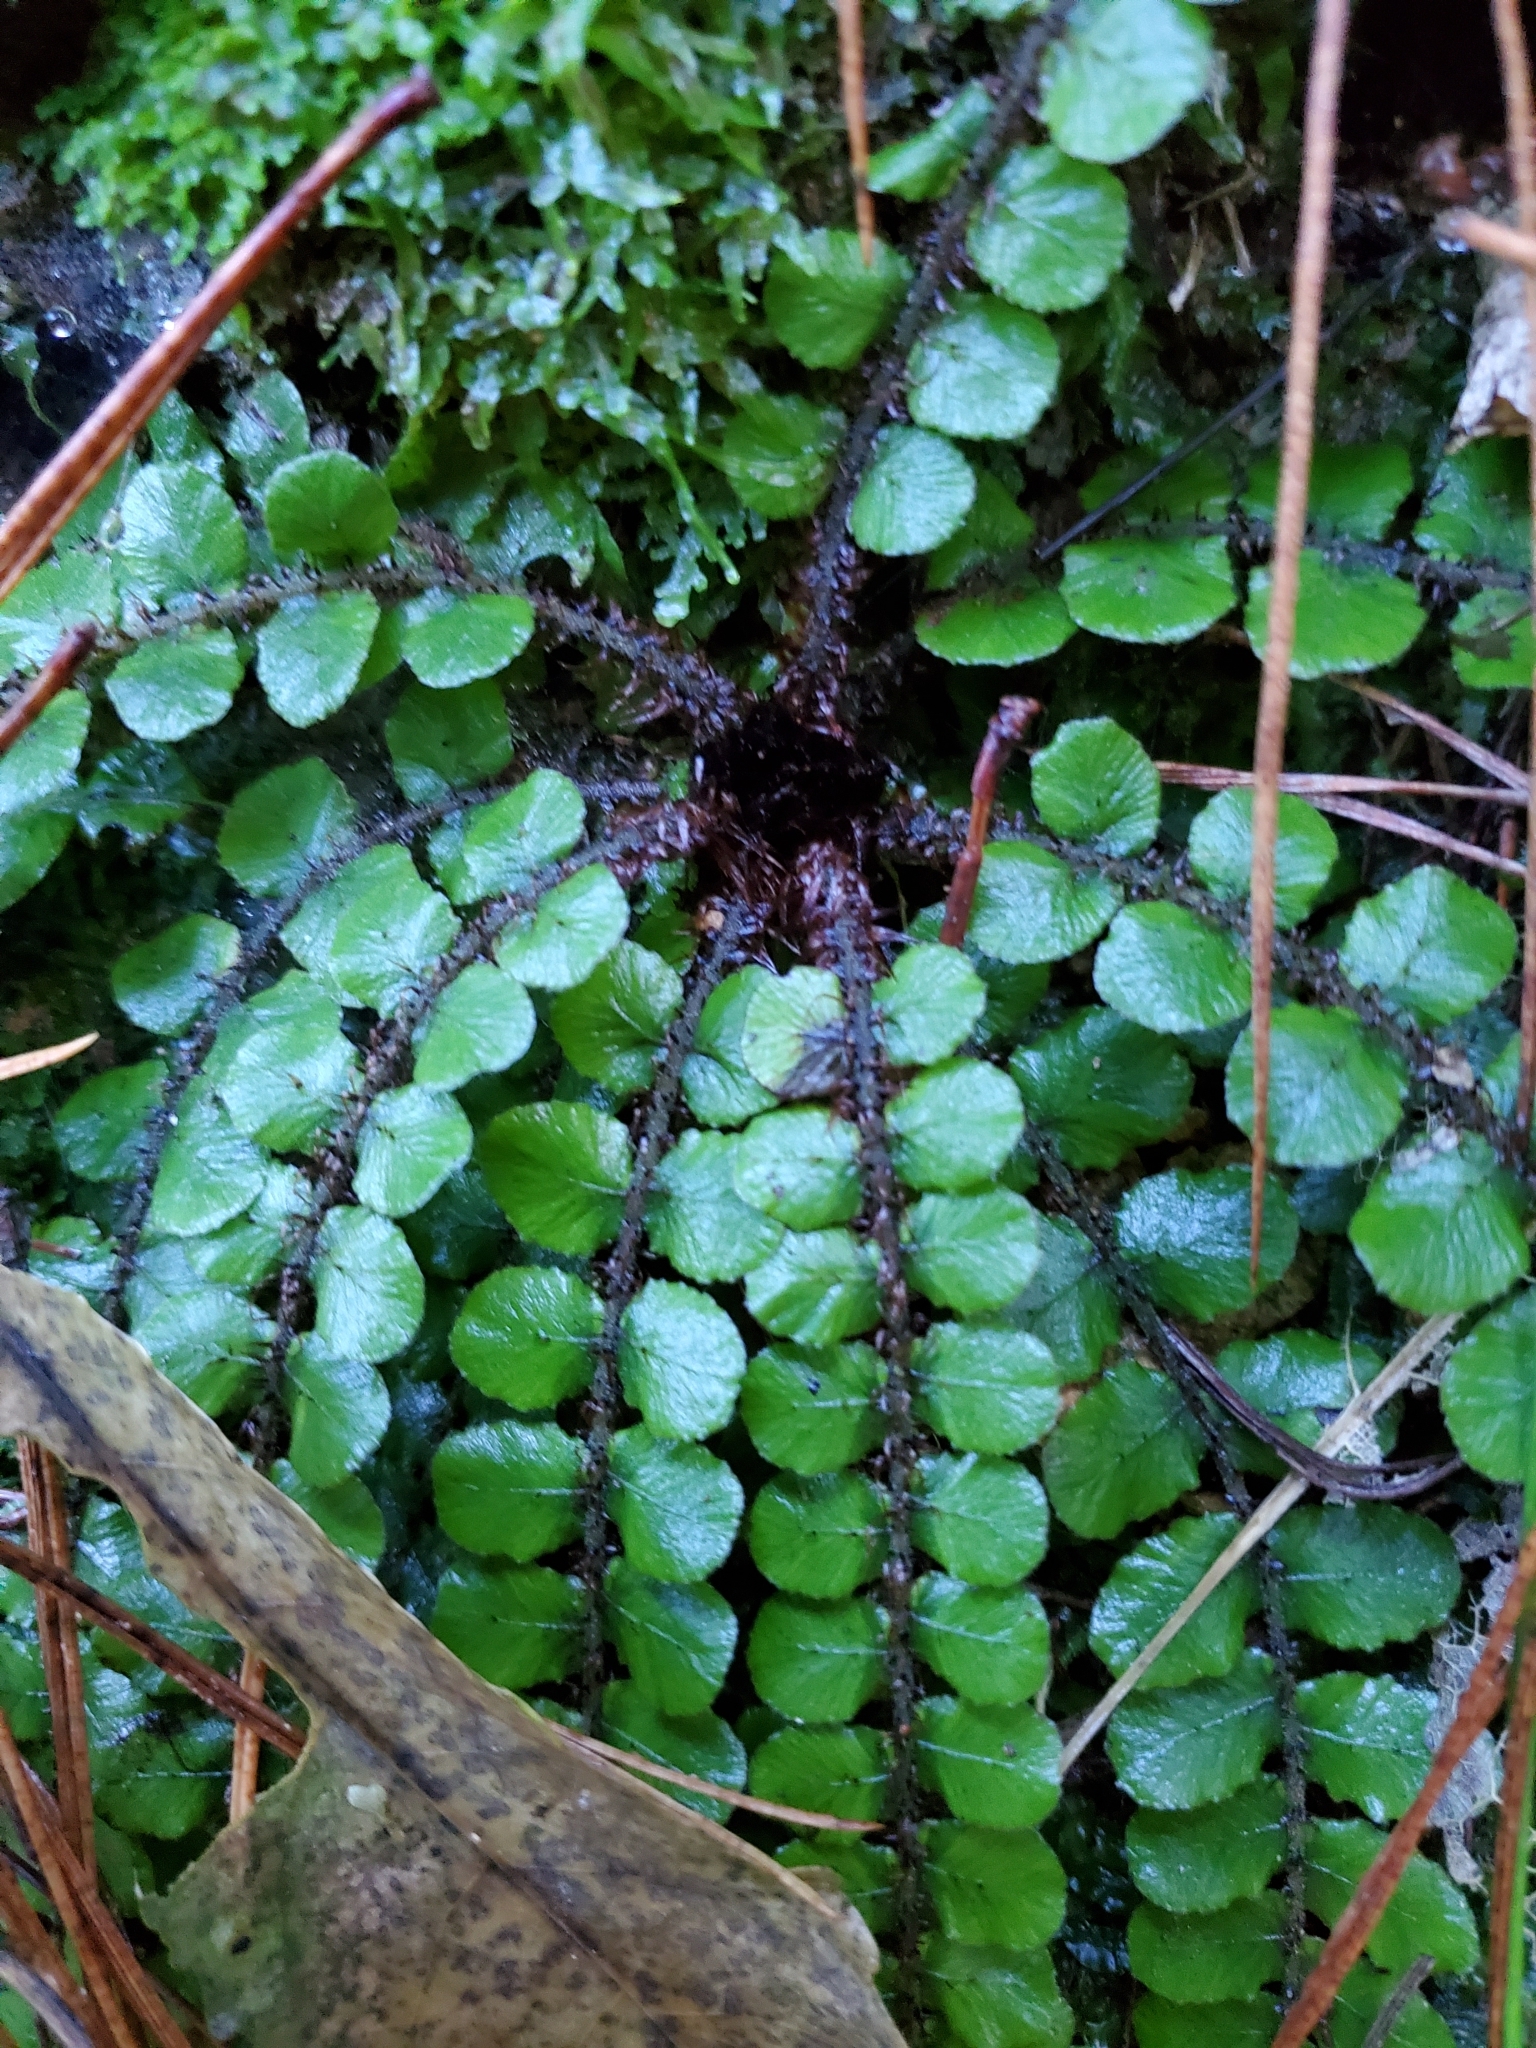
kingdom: Plantae
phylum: Tracheophyta
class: Polypodiopsida
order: Polypodiales
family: Blechnaceae
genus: Cranfillia
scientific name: Cranfillia fluviatilis
